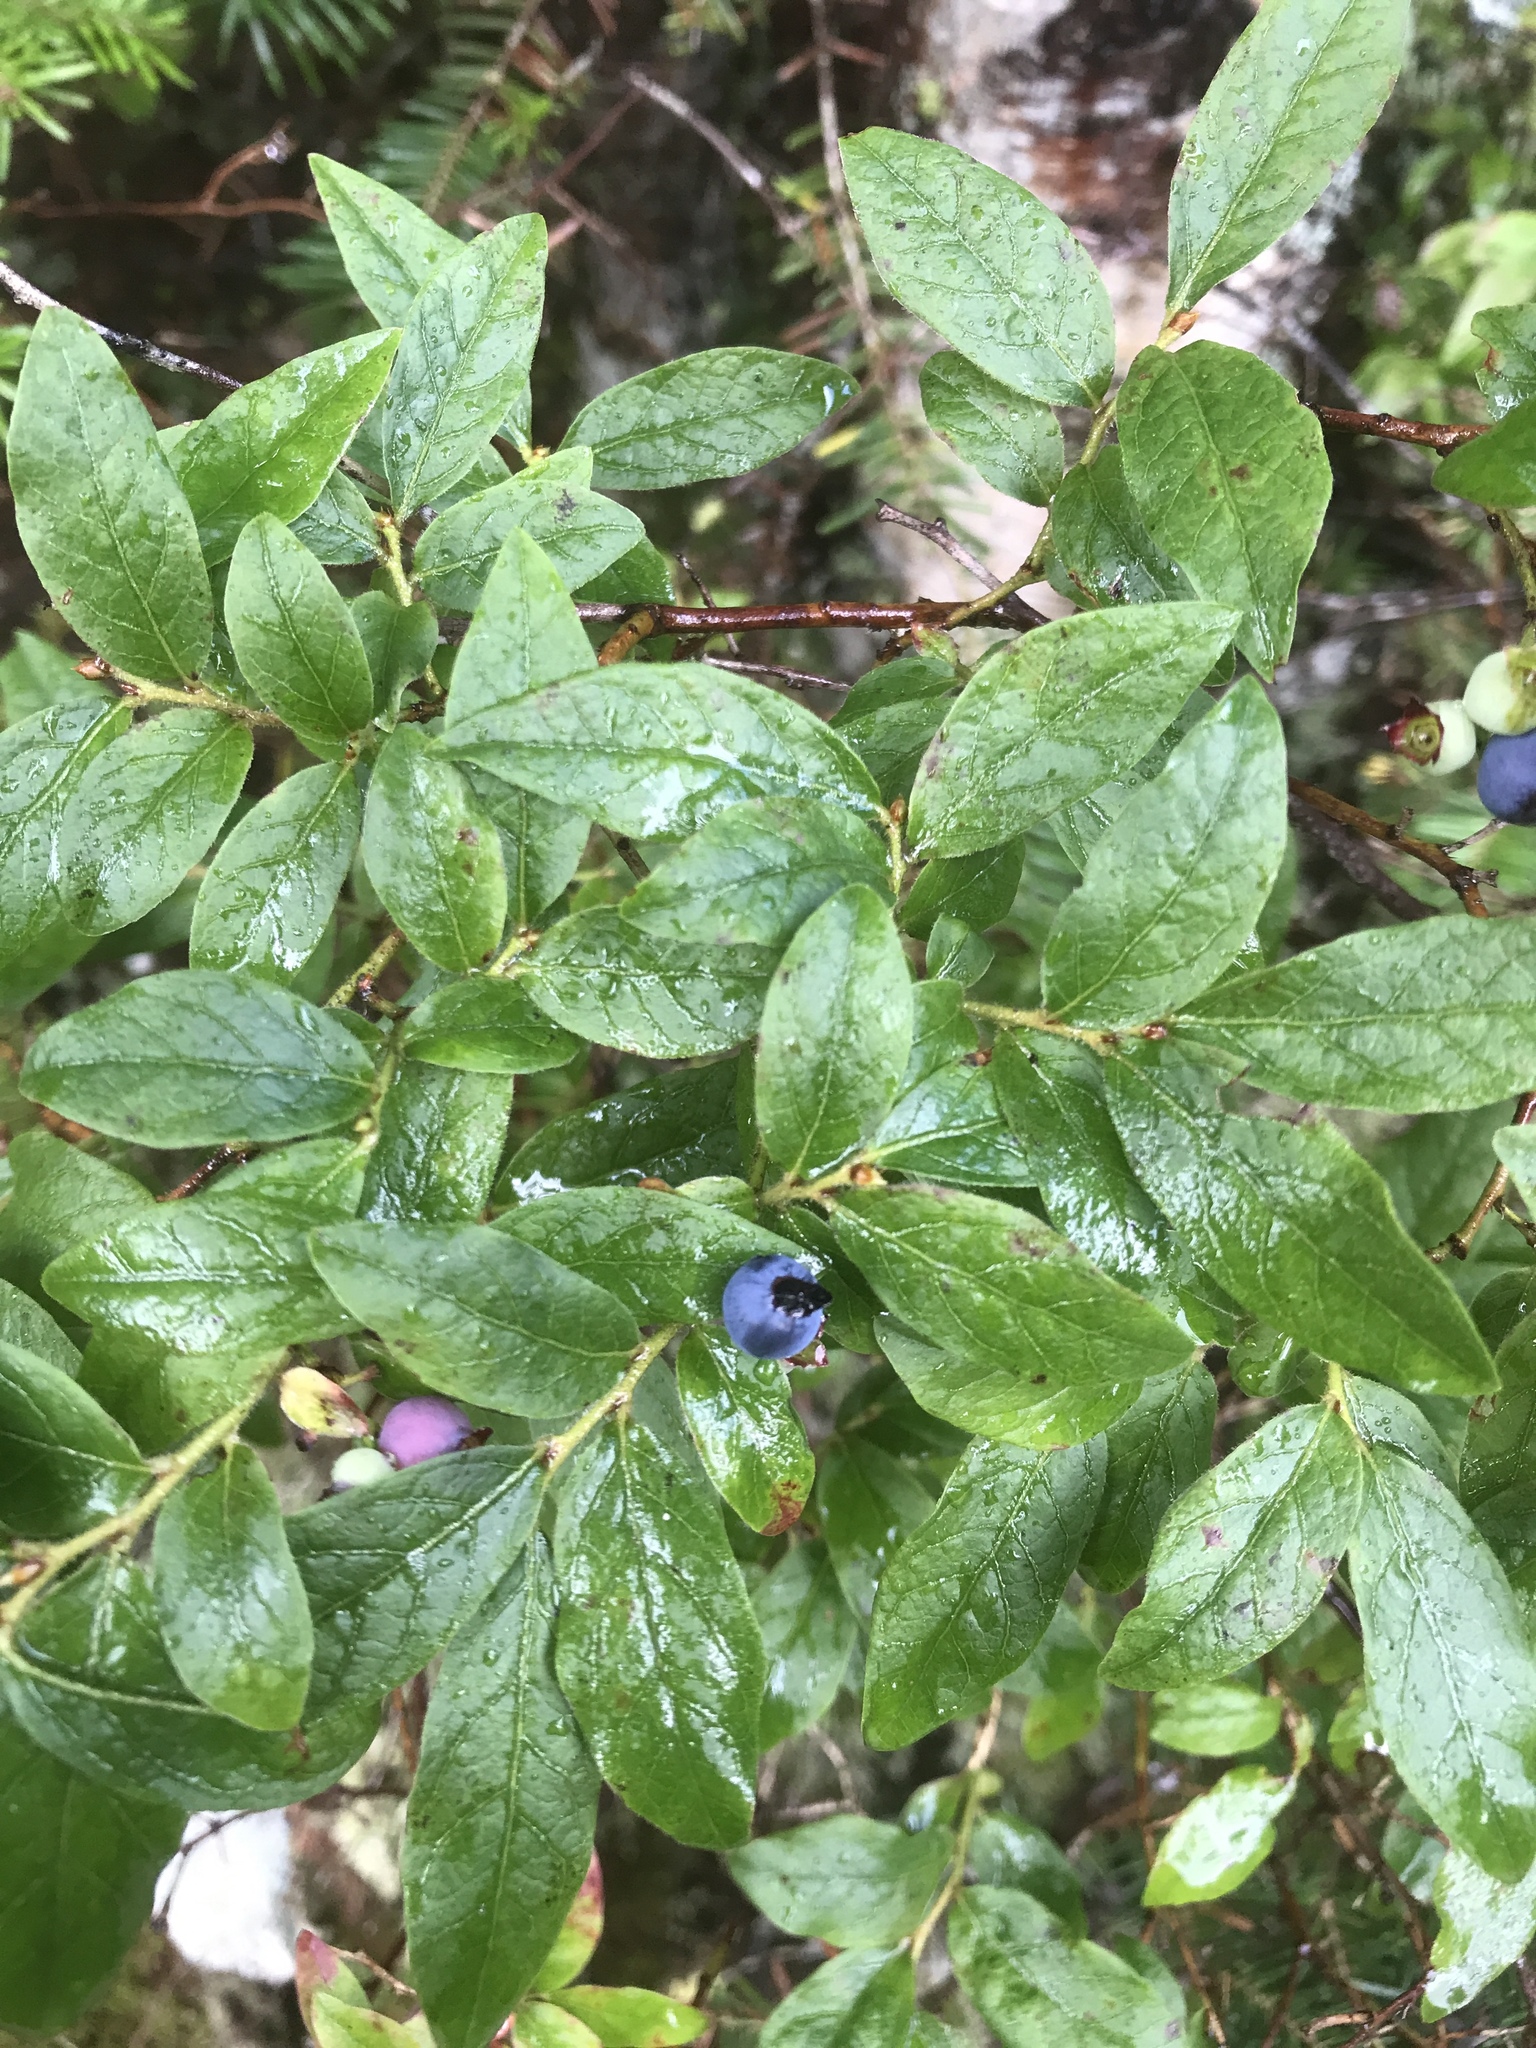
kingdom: Plantae
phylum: Tracheophyta
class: Magnoliopsida
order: Ericales
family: Ericaceae
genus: Vaccinium
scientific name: Vaccinium myrtilloides
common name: Canada blueberry
